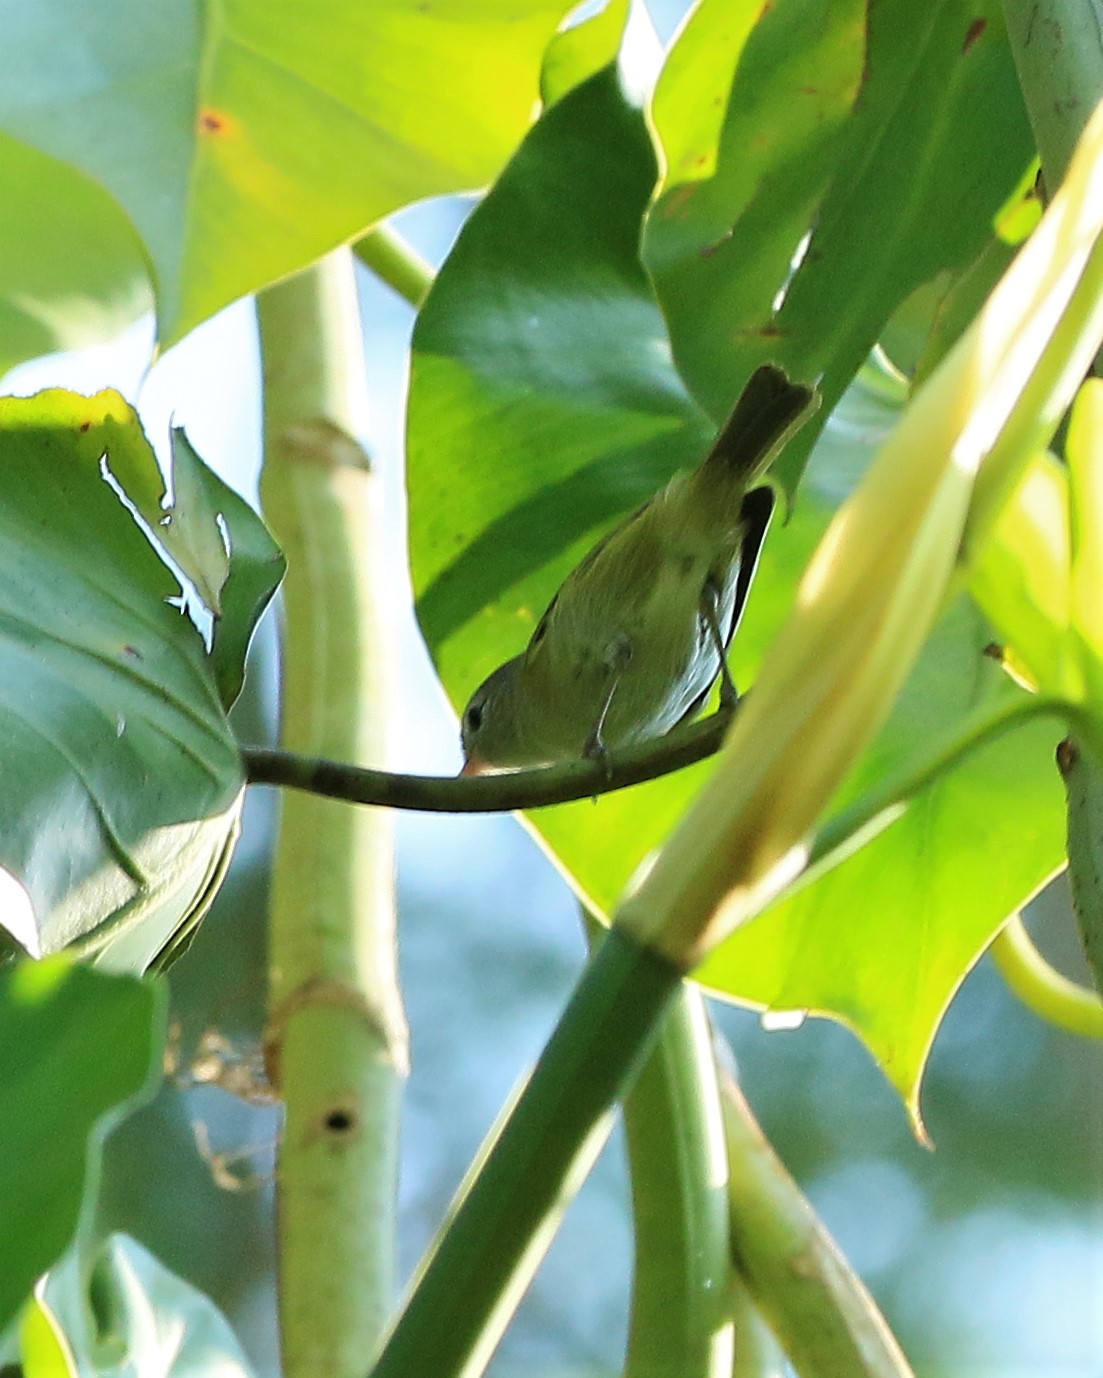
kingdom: Animalia
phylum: Chordata
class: Aves
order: Passeriformes
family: Vireonidae
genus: Hylophilus
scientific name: Hylophilus decurtatus
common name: Lesser greenlet
